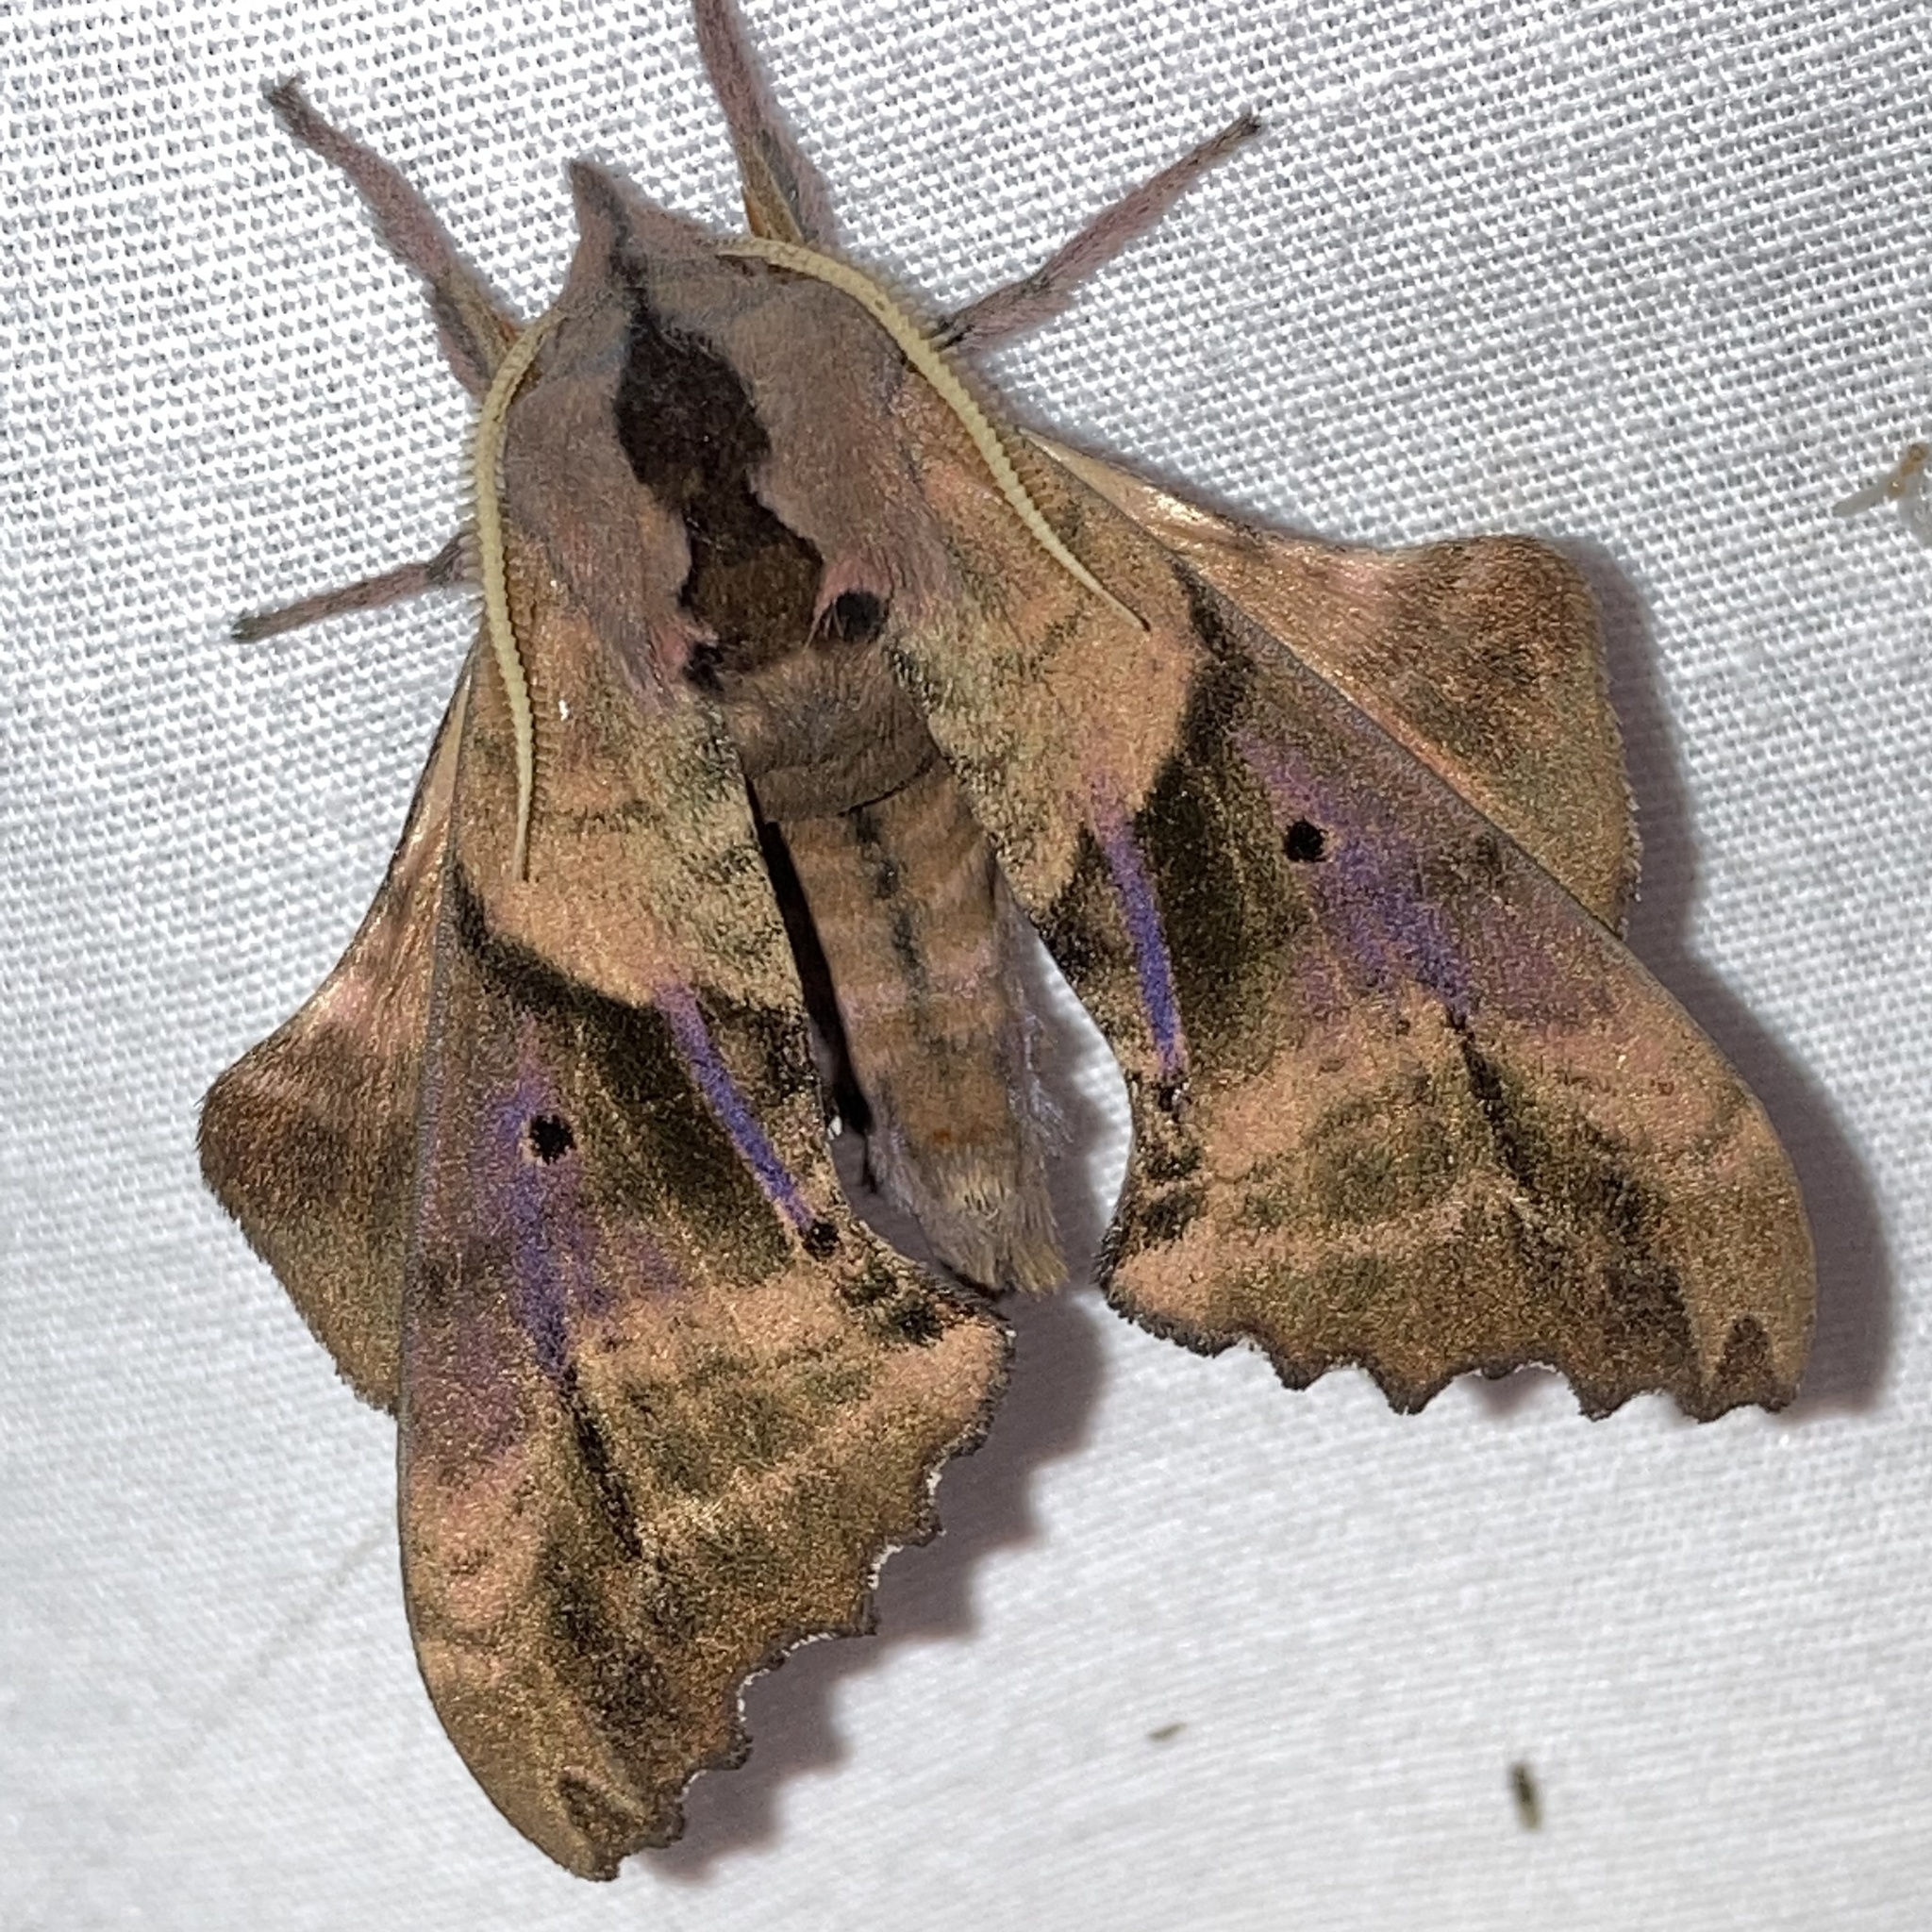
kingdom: Animalia
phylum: Arthropoda
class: Insecta
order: Lepidoptera
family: Sphingidae
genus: Paonias
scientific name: Paonias excaecata
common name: Blind-eyed sphinx
